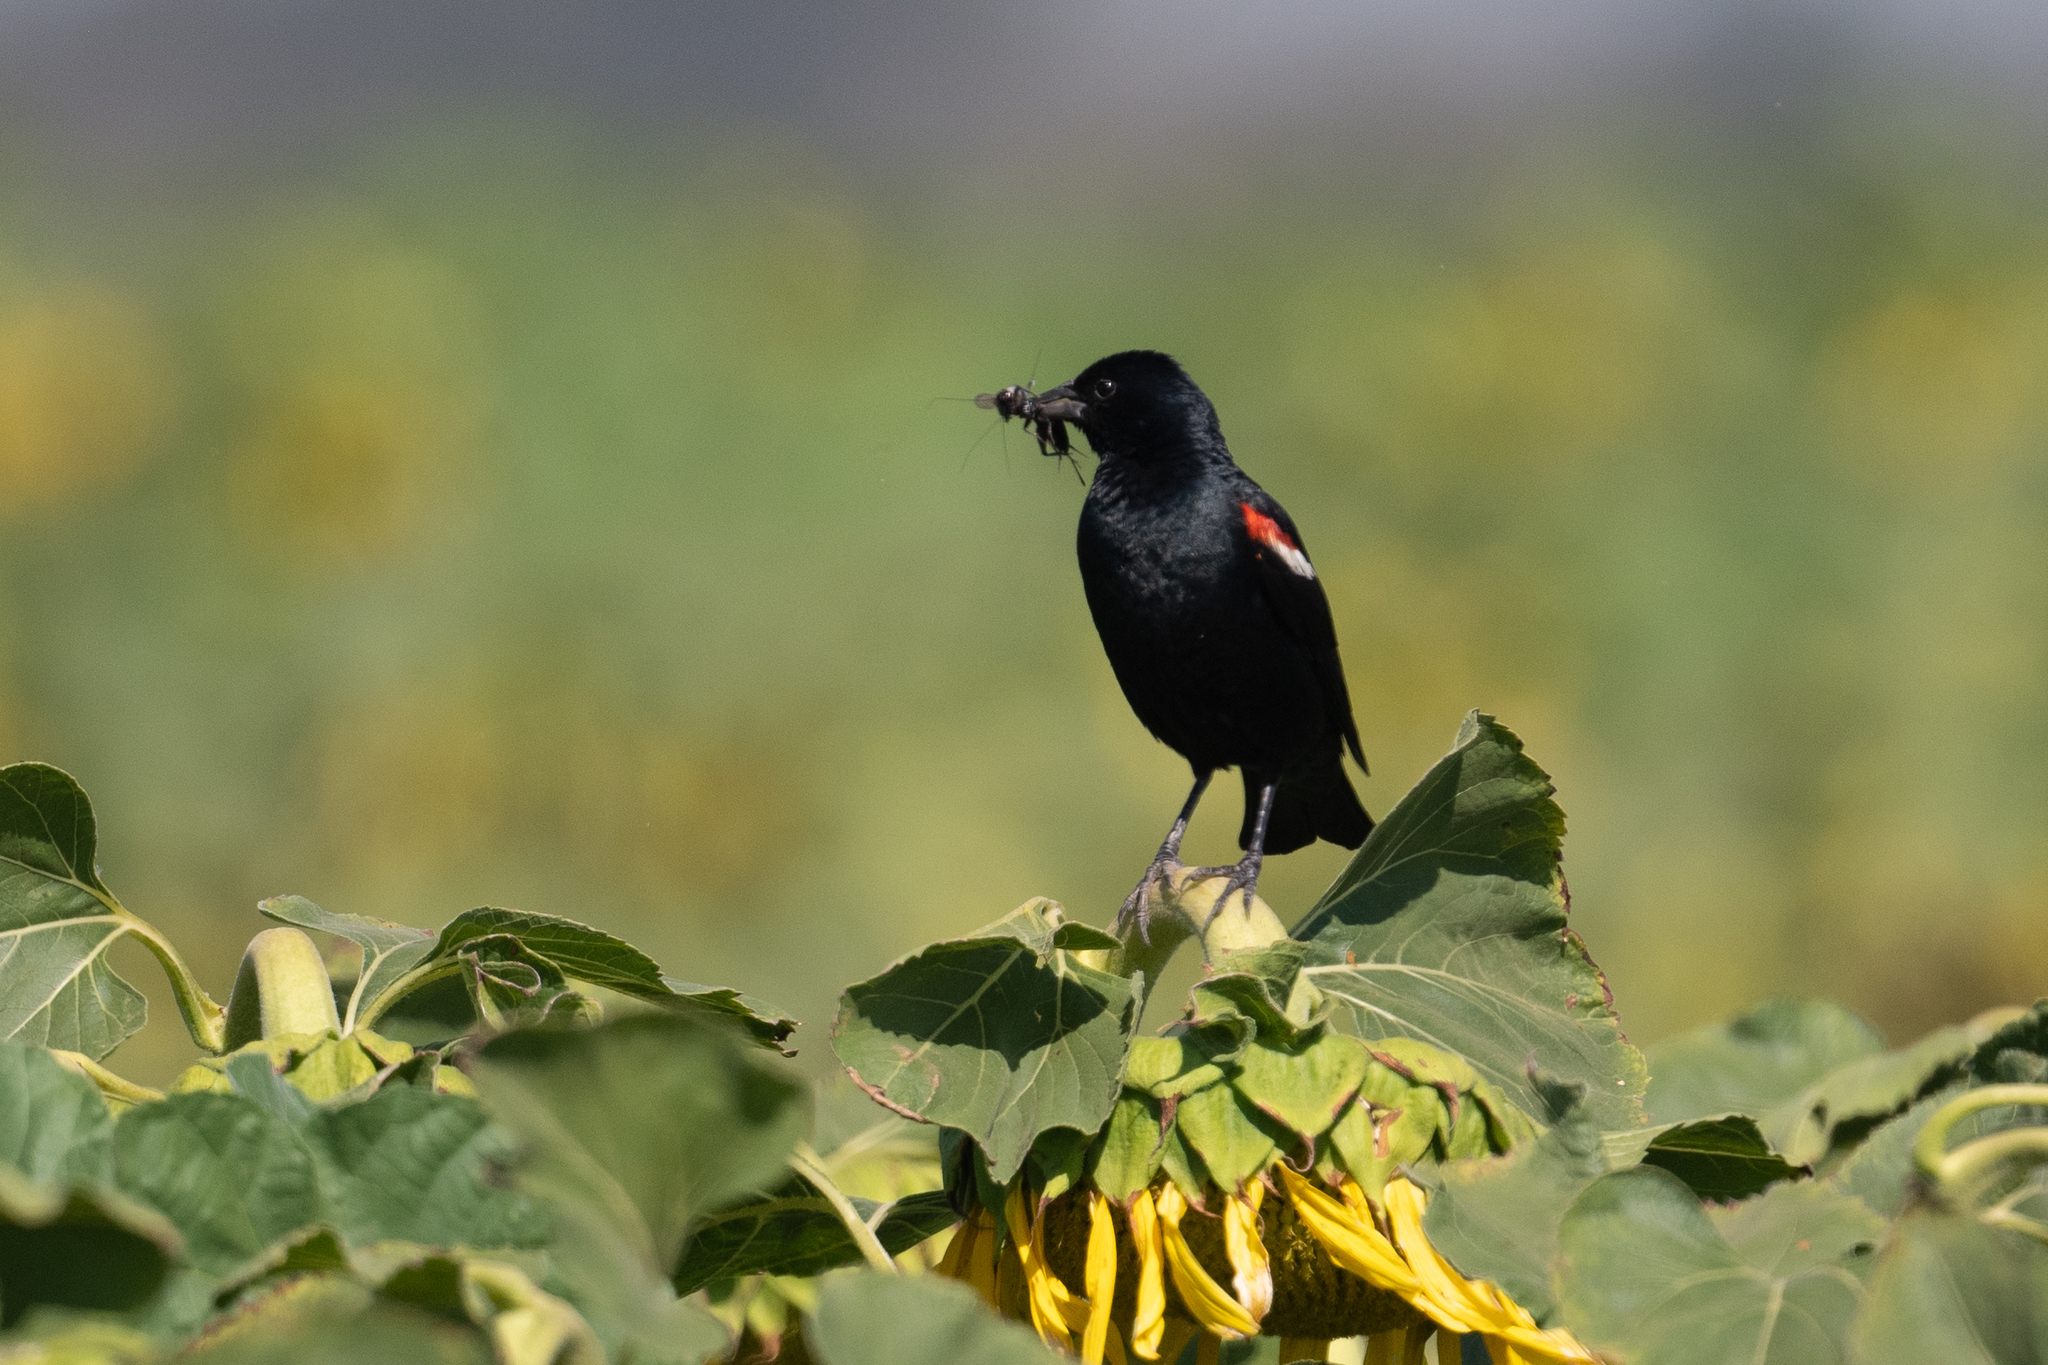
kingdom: Animalia
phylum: Chordata
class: Aves
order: Passeriformes
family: Icteridae
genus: Agelaius
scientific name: Agelaius tricolor
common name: Tricolored blackbird
